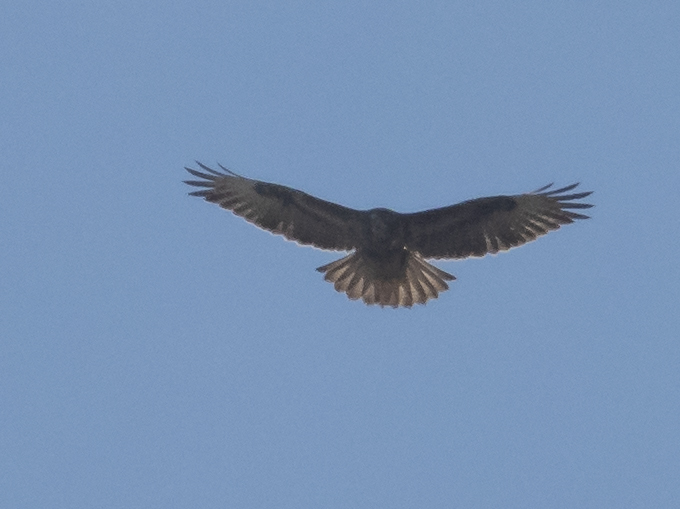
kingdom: Animalia
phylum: Chordata
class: Aves
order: Accipitriformes
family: Accipitridae
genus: Buteo
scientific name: Buteo buteo
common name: Common buzzard
